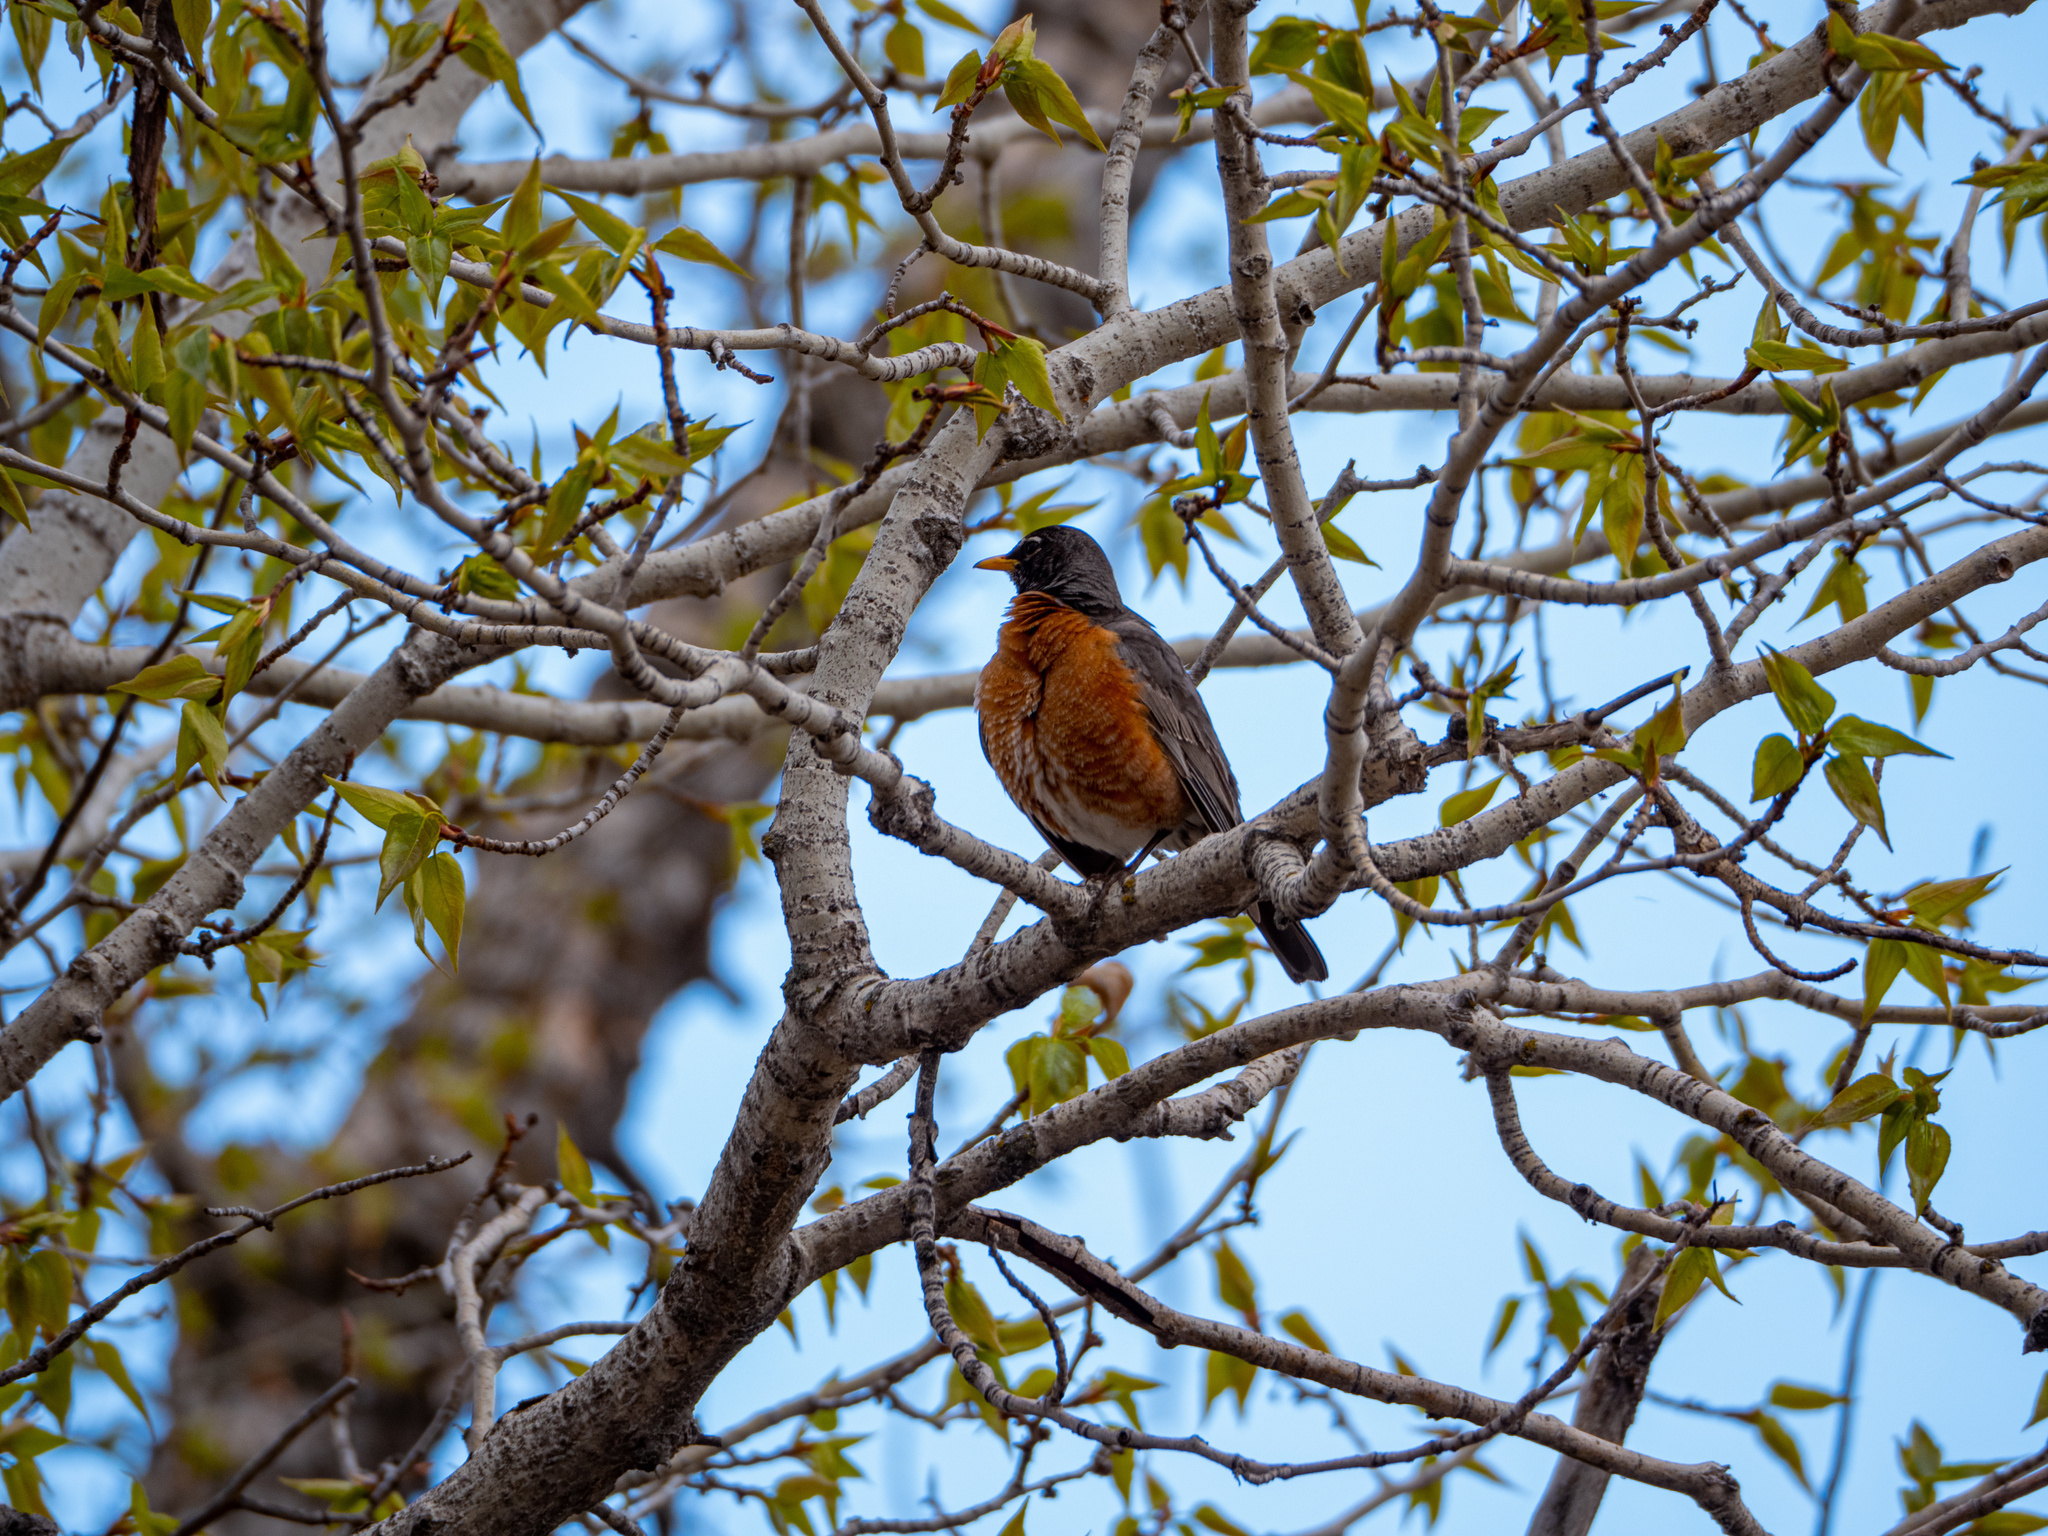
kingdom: Animalia
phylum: Chordata
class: Aves
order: Passeriformes
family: Turdidae
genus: Turdus
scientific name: Turdus migratorius
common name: American robin
